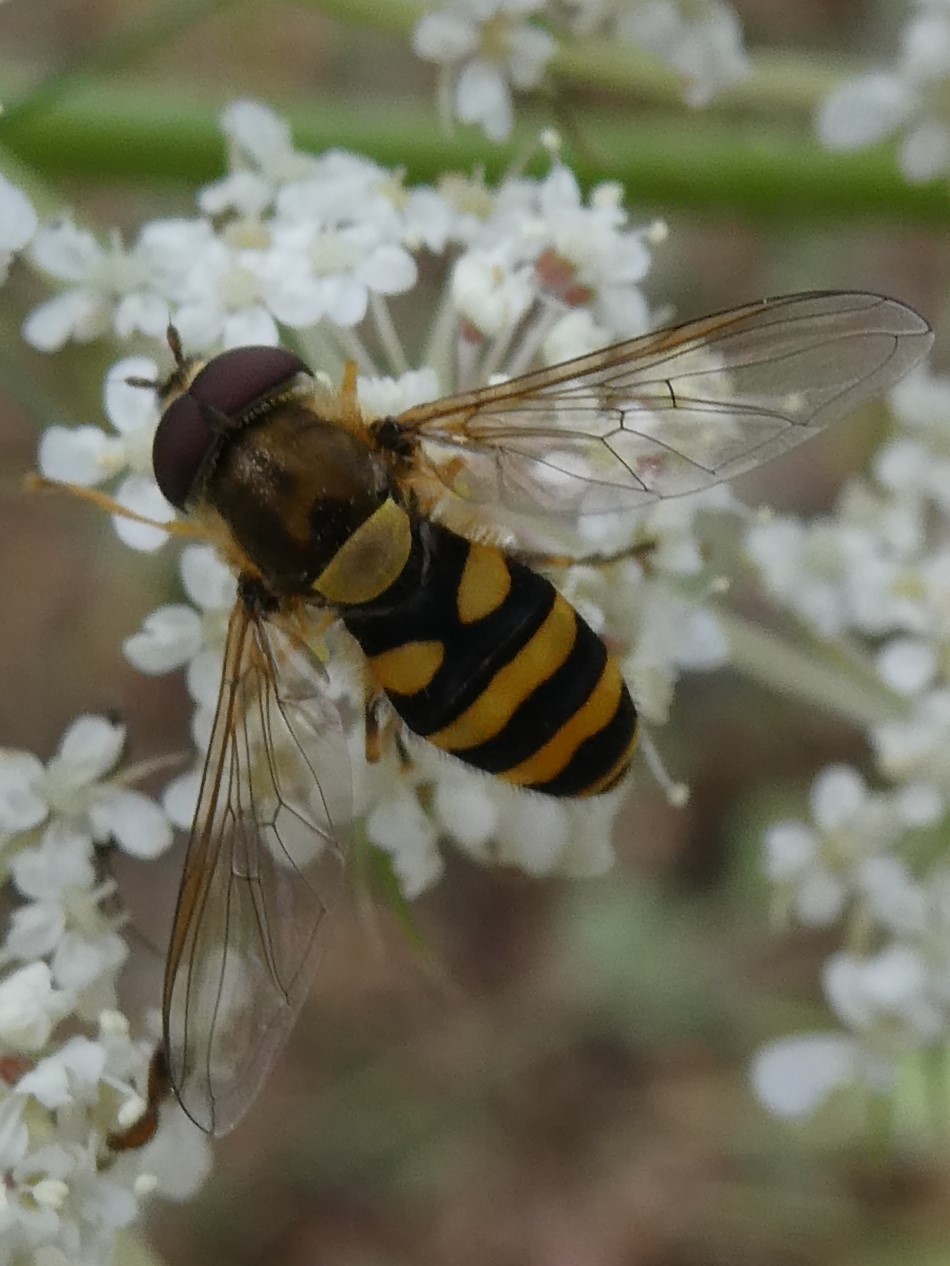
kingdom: Animalia
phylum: Arthropoda
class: Insecta
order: Diptera
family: Syrphidae
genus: Syrphus
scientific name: Syrphus
